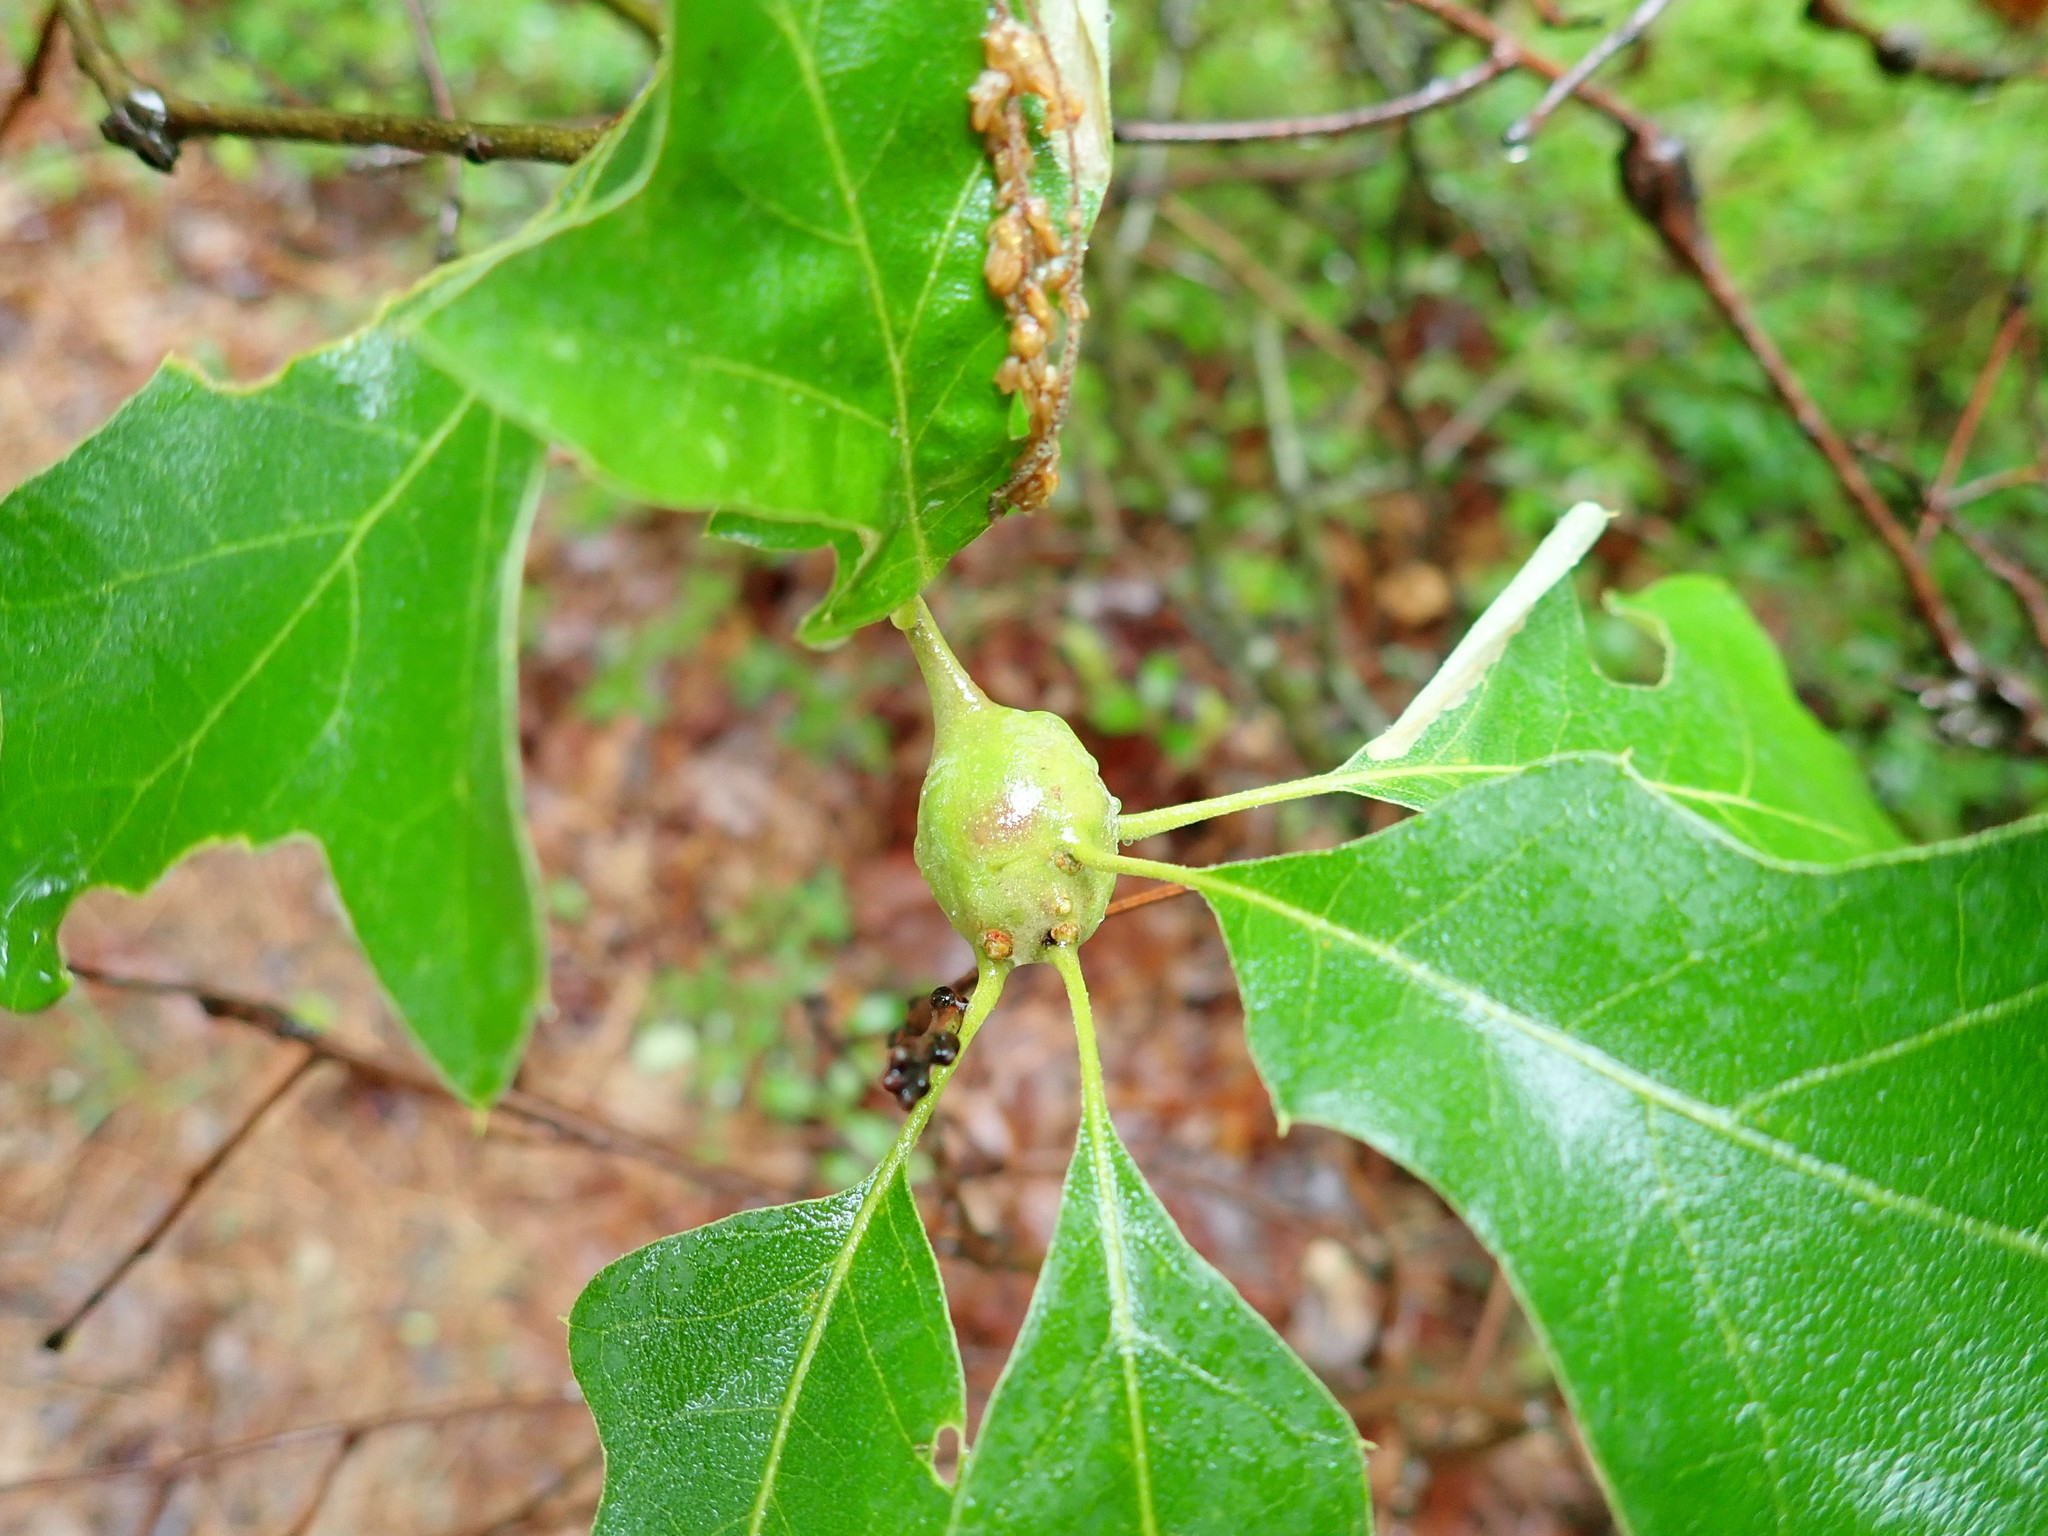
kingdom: Animalia
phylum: Arthropoda
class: Insecta
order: Hymenoptera
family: Cynipidae
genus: Zapatella
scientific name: Zapatella quercusphellos
